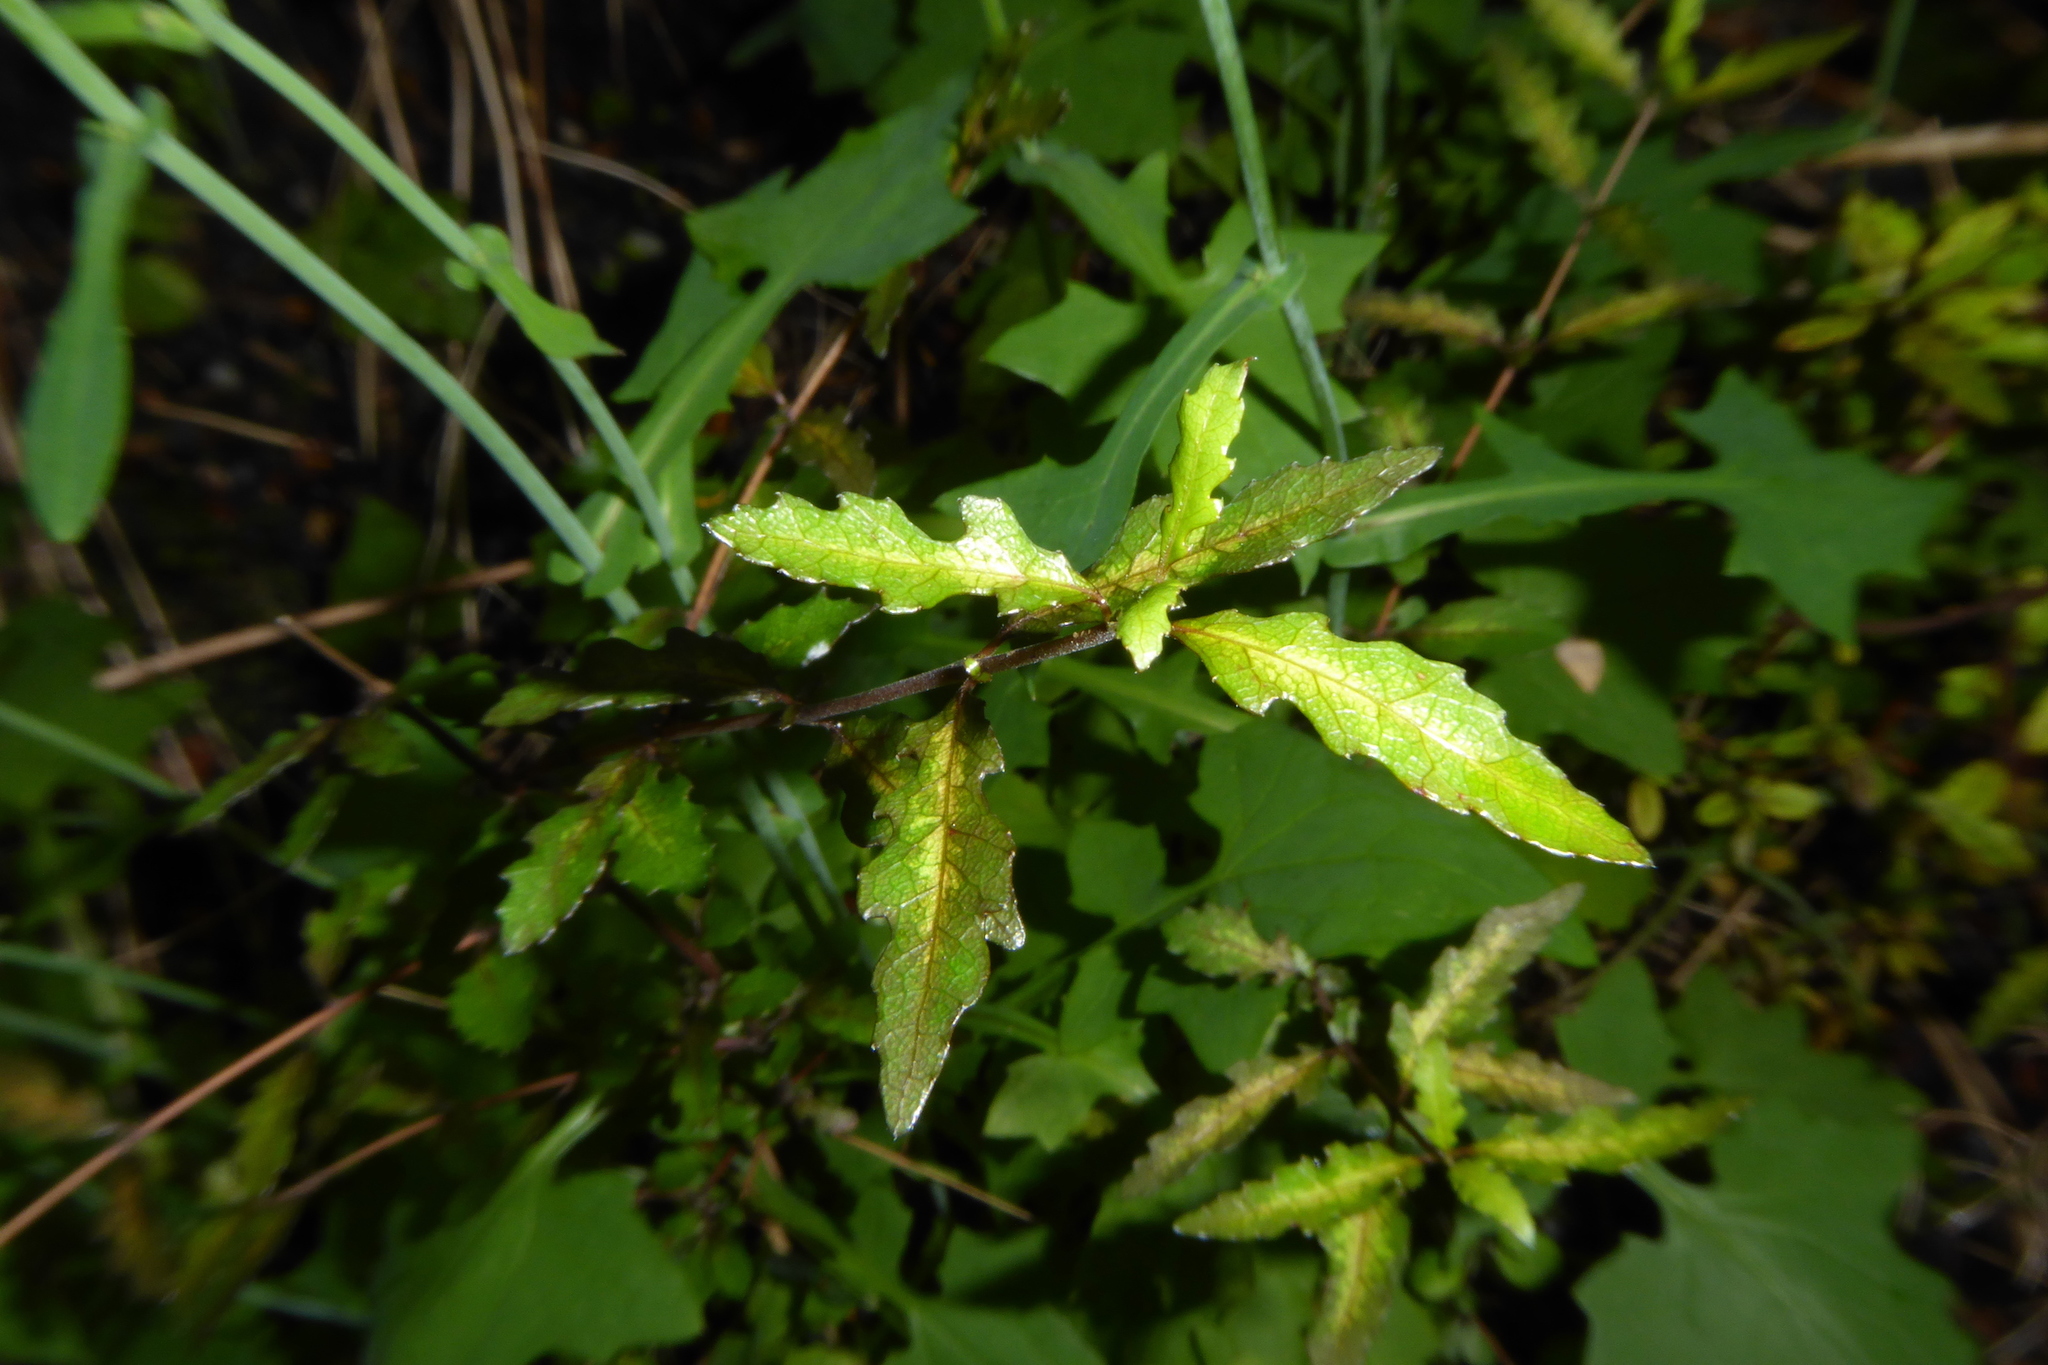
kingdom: Plantae
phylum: Tracheophyta
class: Magnoliopsida
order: Oxalidales
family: Elaeocarpaceae
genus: Aristotelia
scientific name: Aristotelia fruticosa
